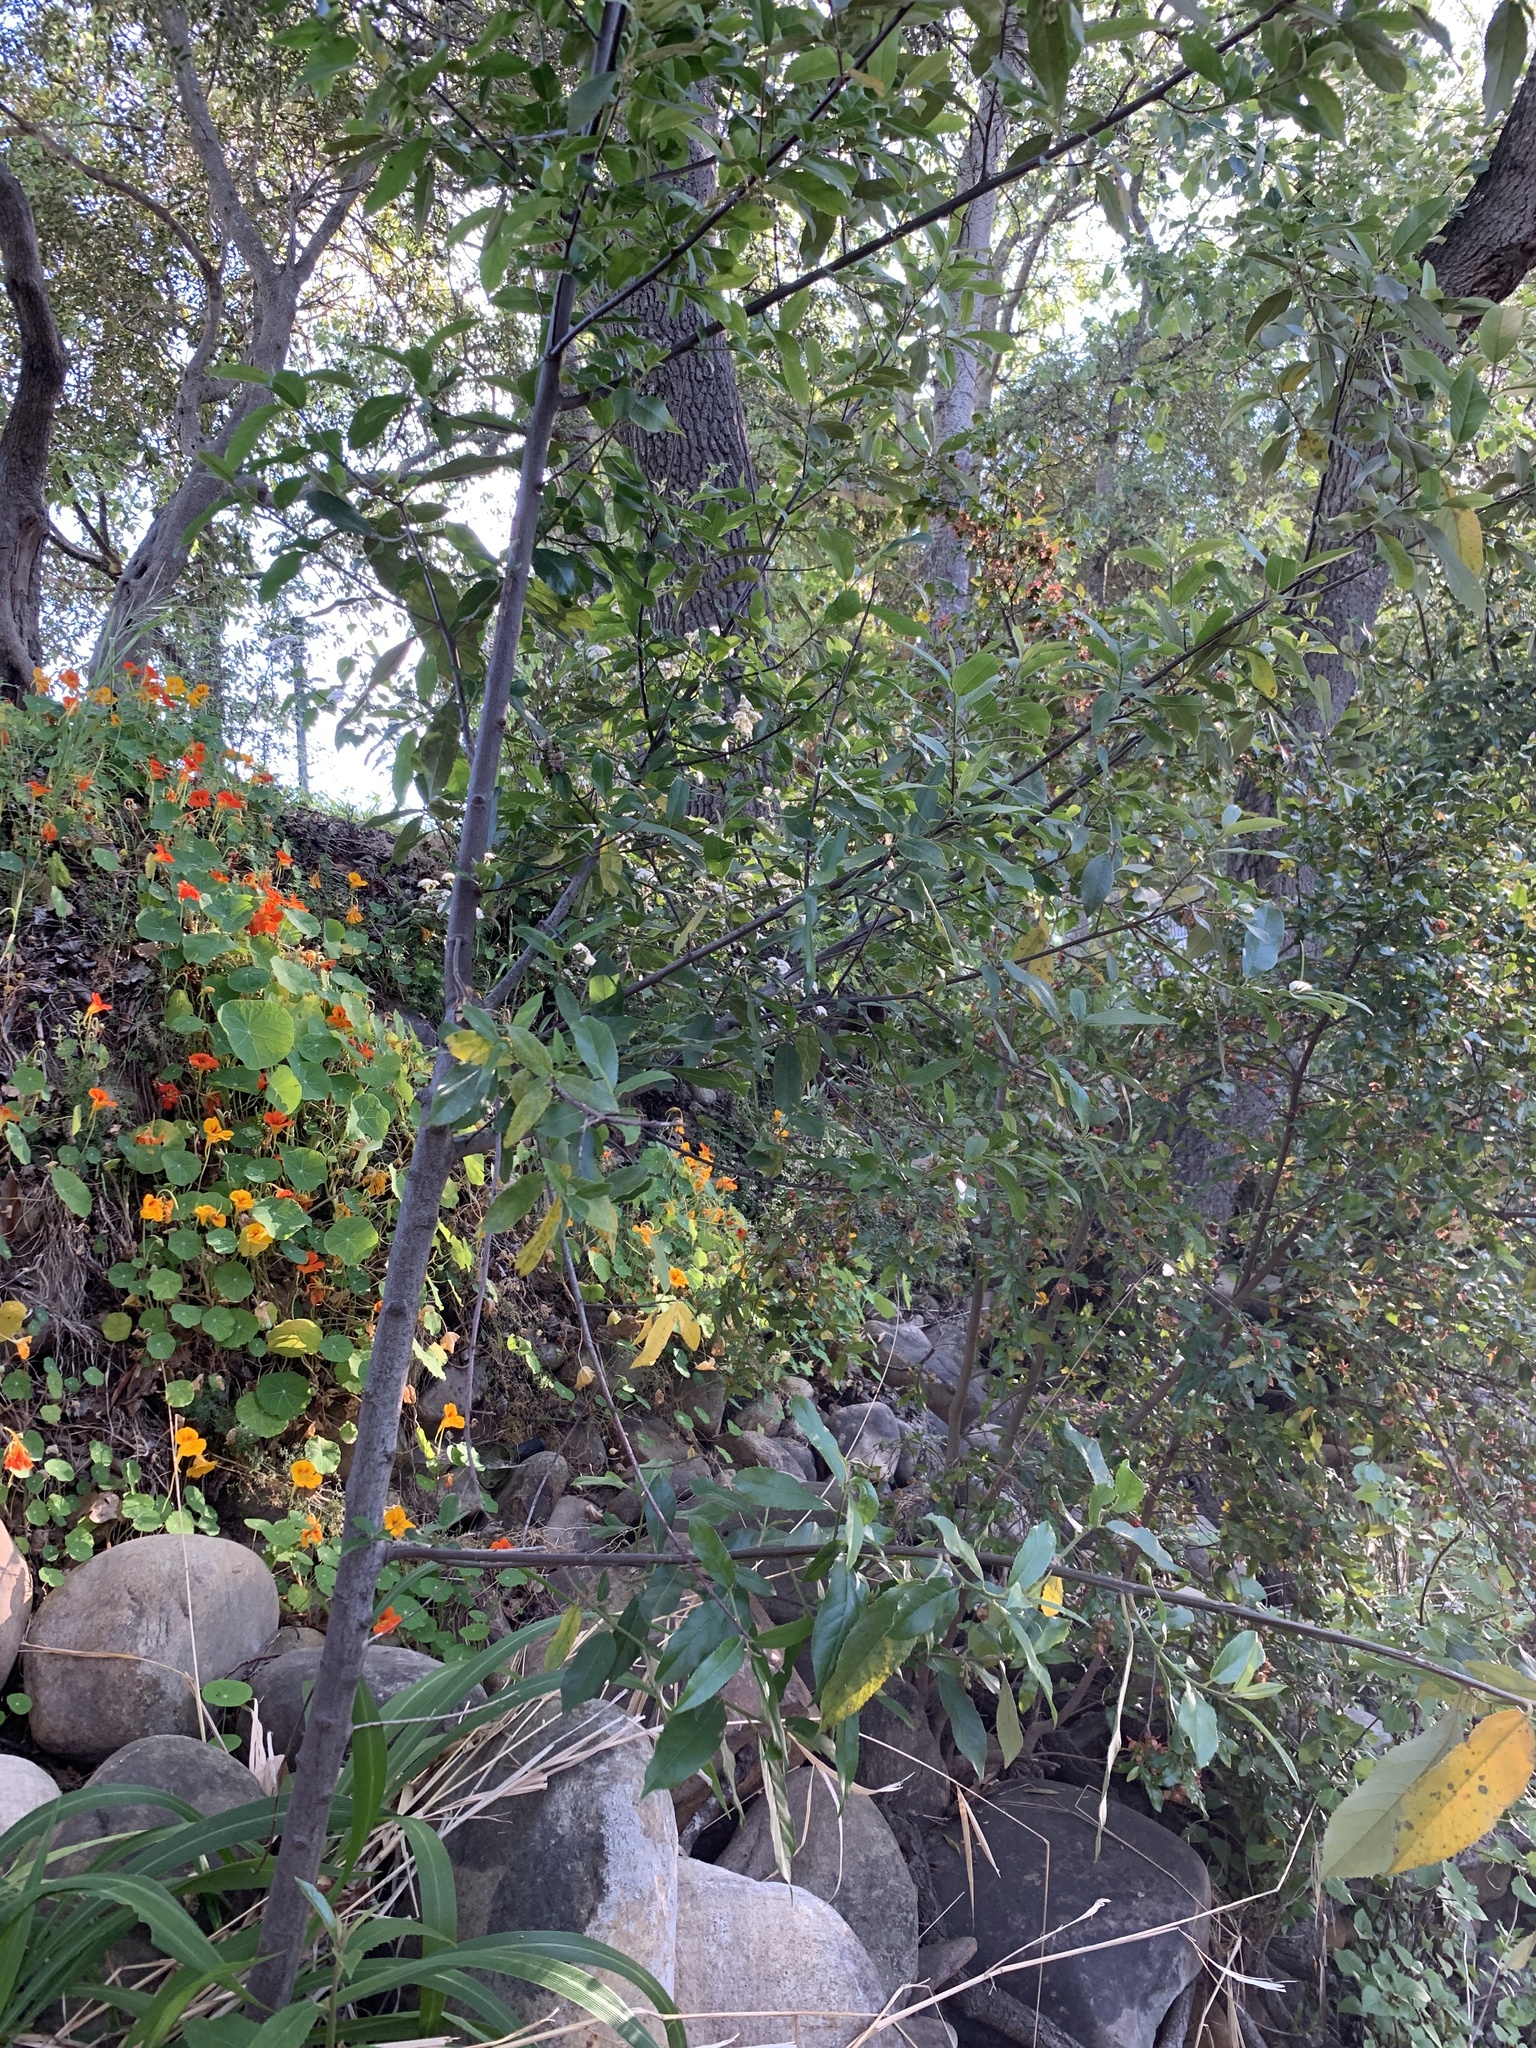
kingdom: Plantae
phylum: Tracheophyta
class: Magnoliopsida
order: Malpighiales
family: Achariaceae
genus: Kiggelaria
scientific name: Kiggelaria africana
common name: Wild peach
